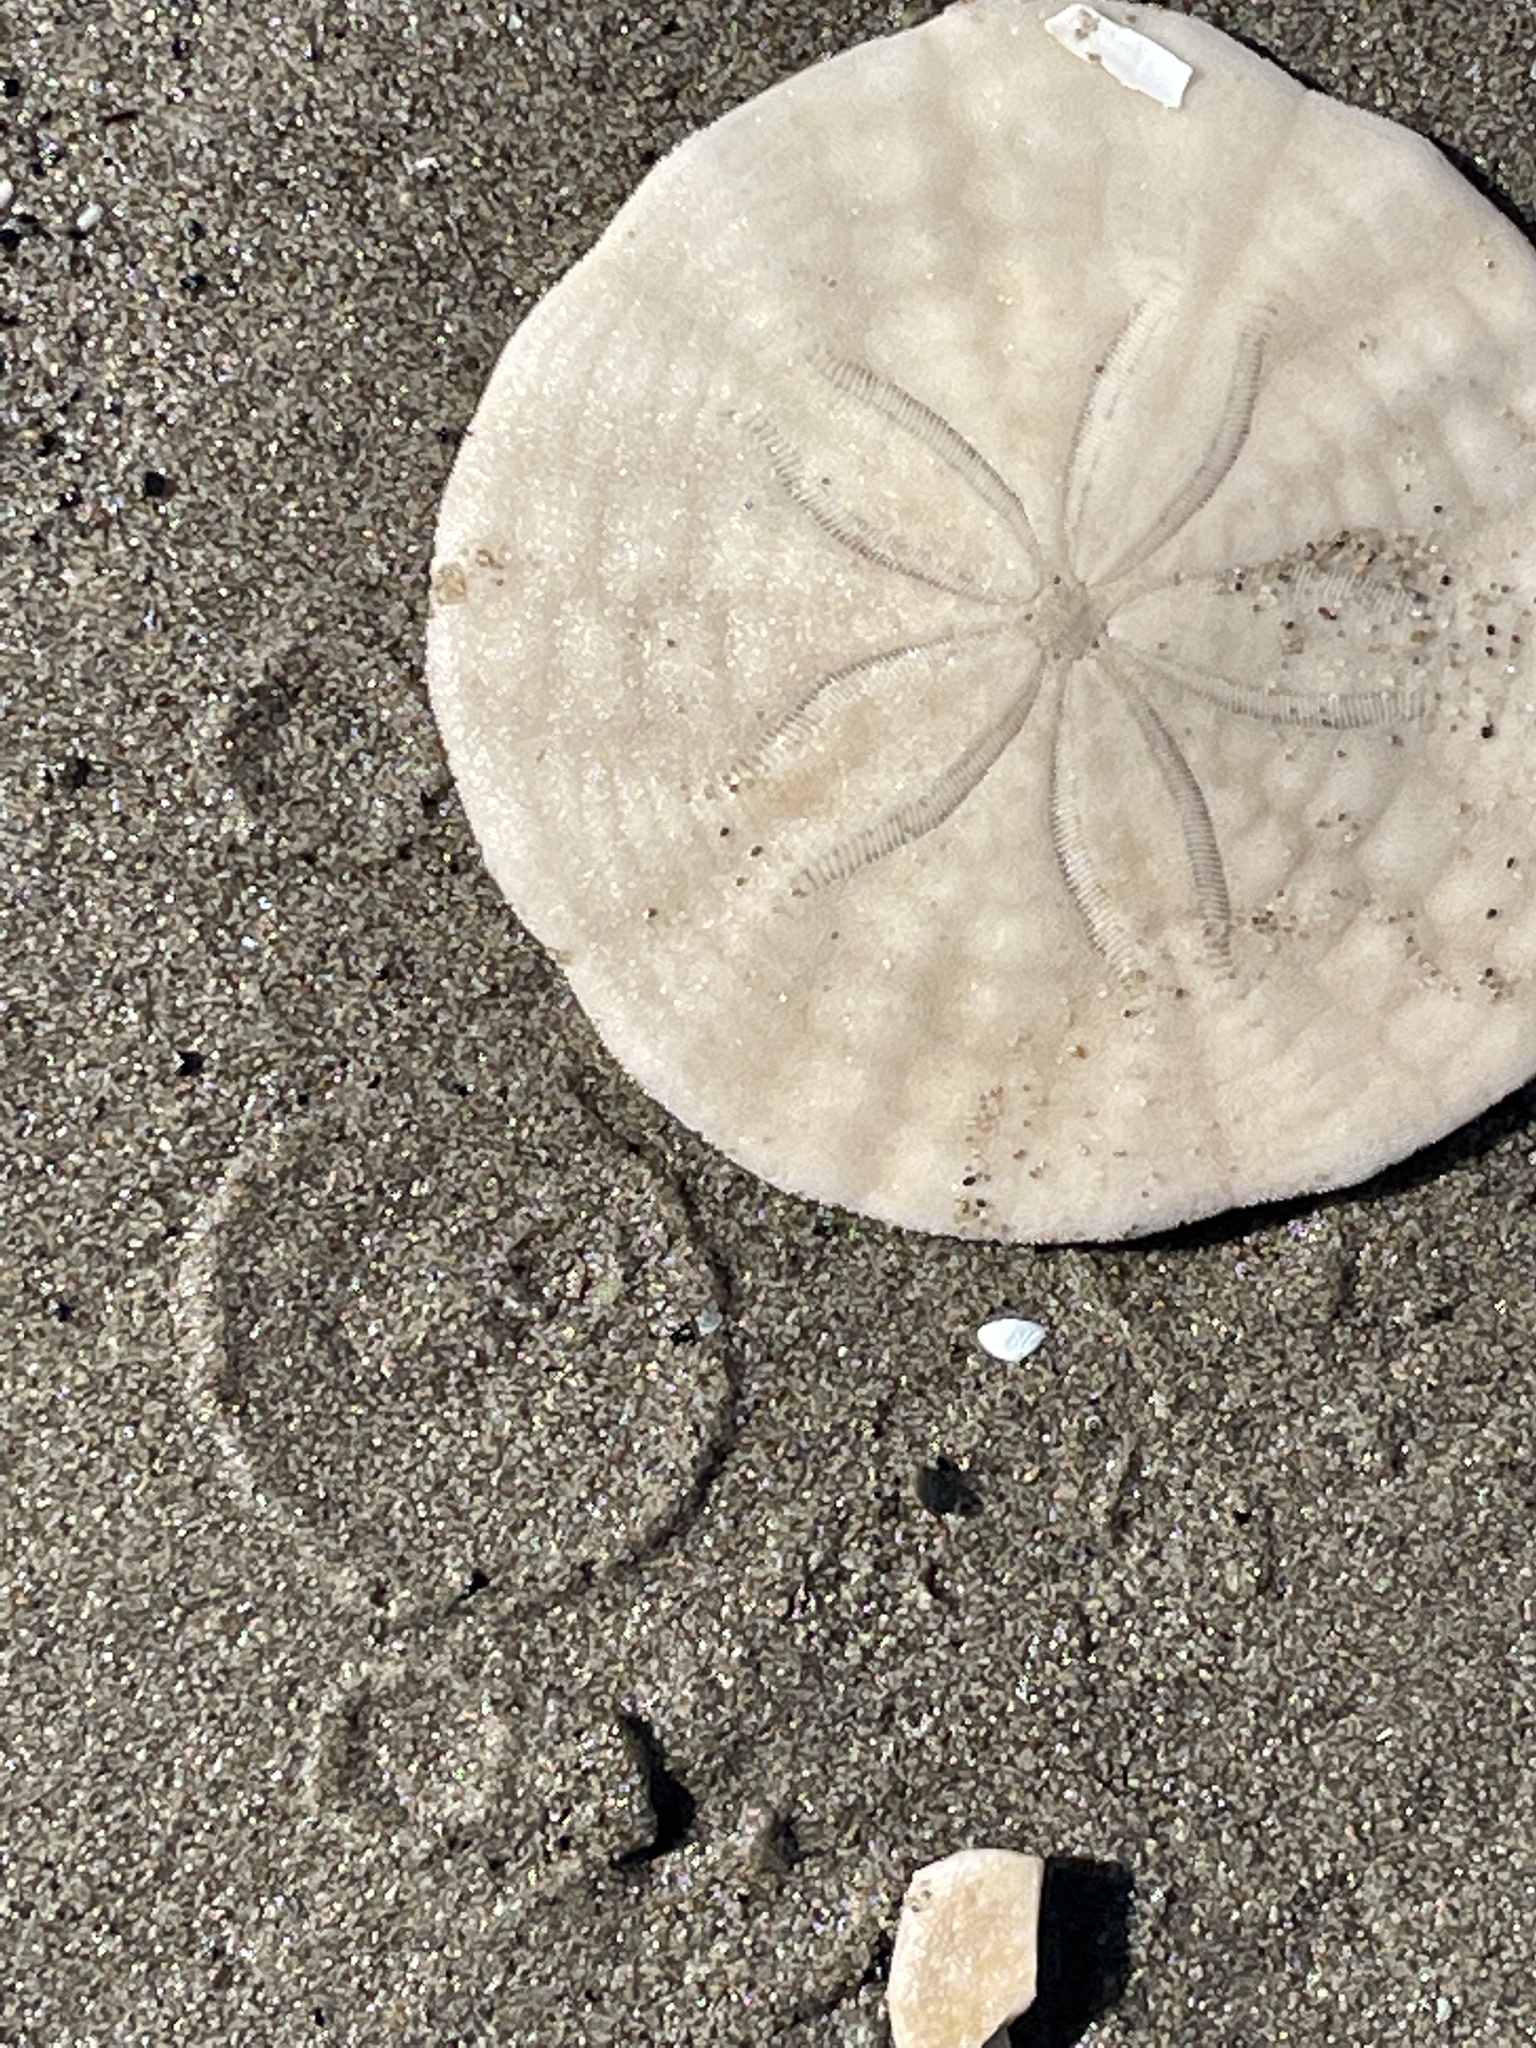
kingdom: Animalia
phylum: Echinodermata
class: Echinoidea
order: Echinolampadacea
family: Echinarachniidae
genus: Echinarachnius
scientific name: Echinarachnius parma
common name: Common sand dollar
